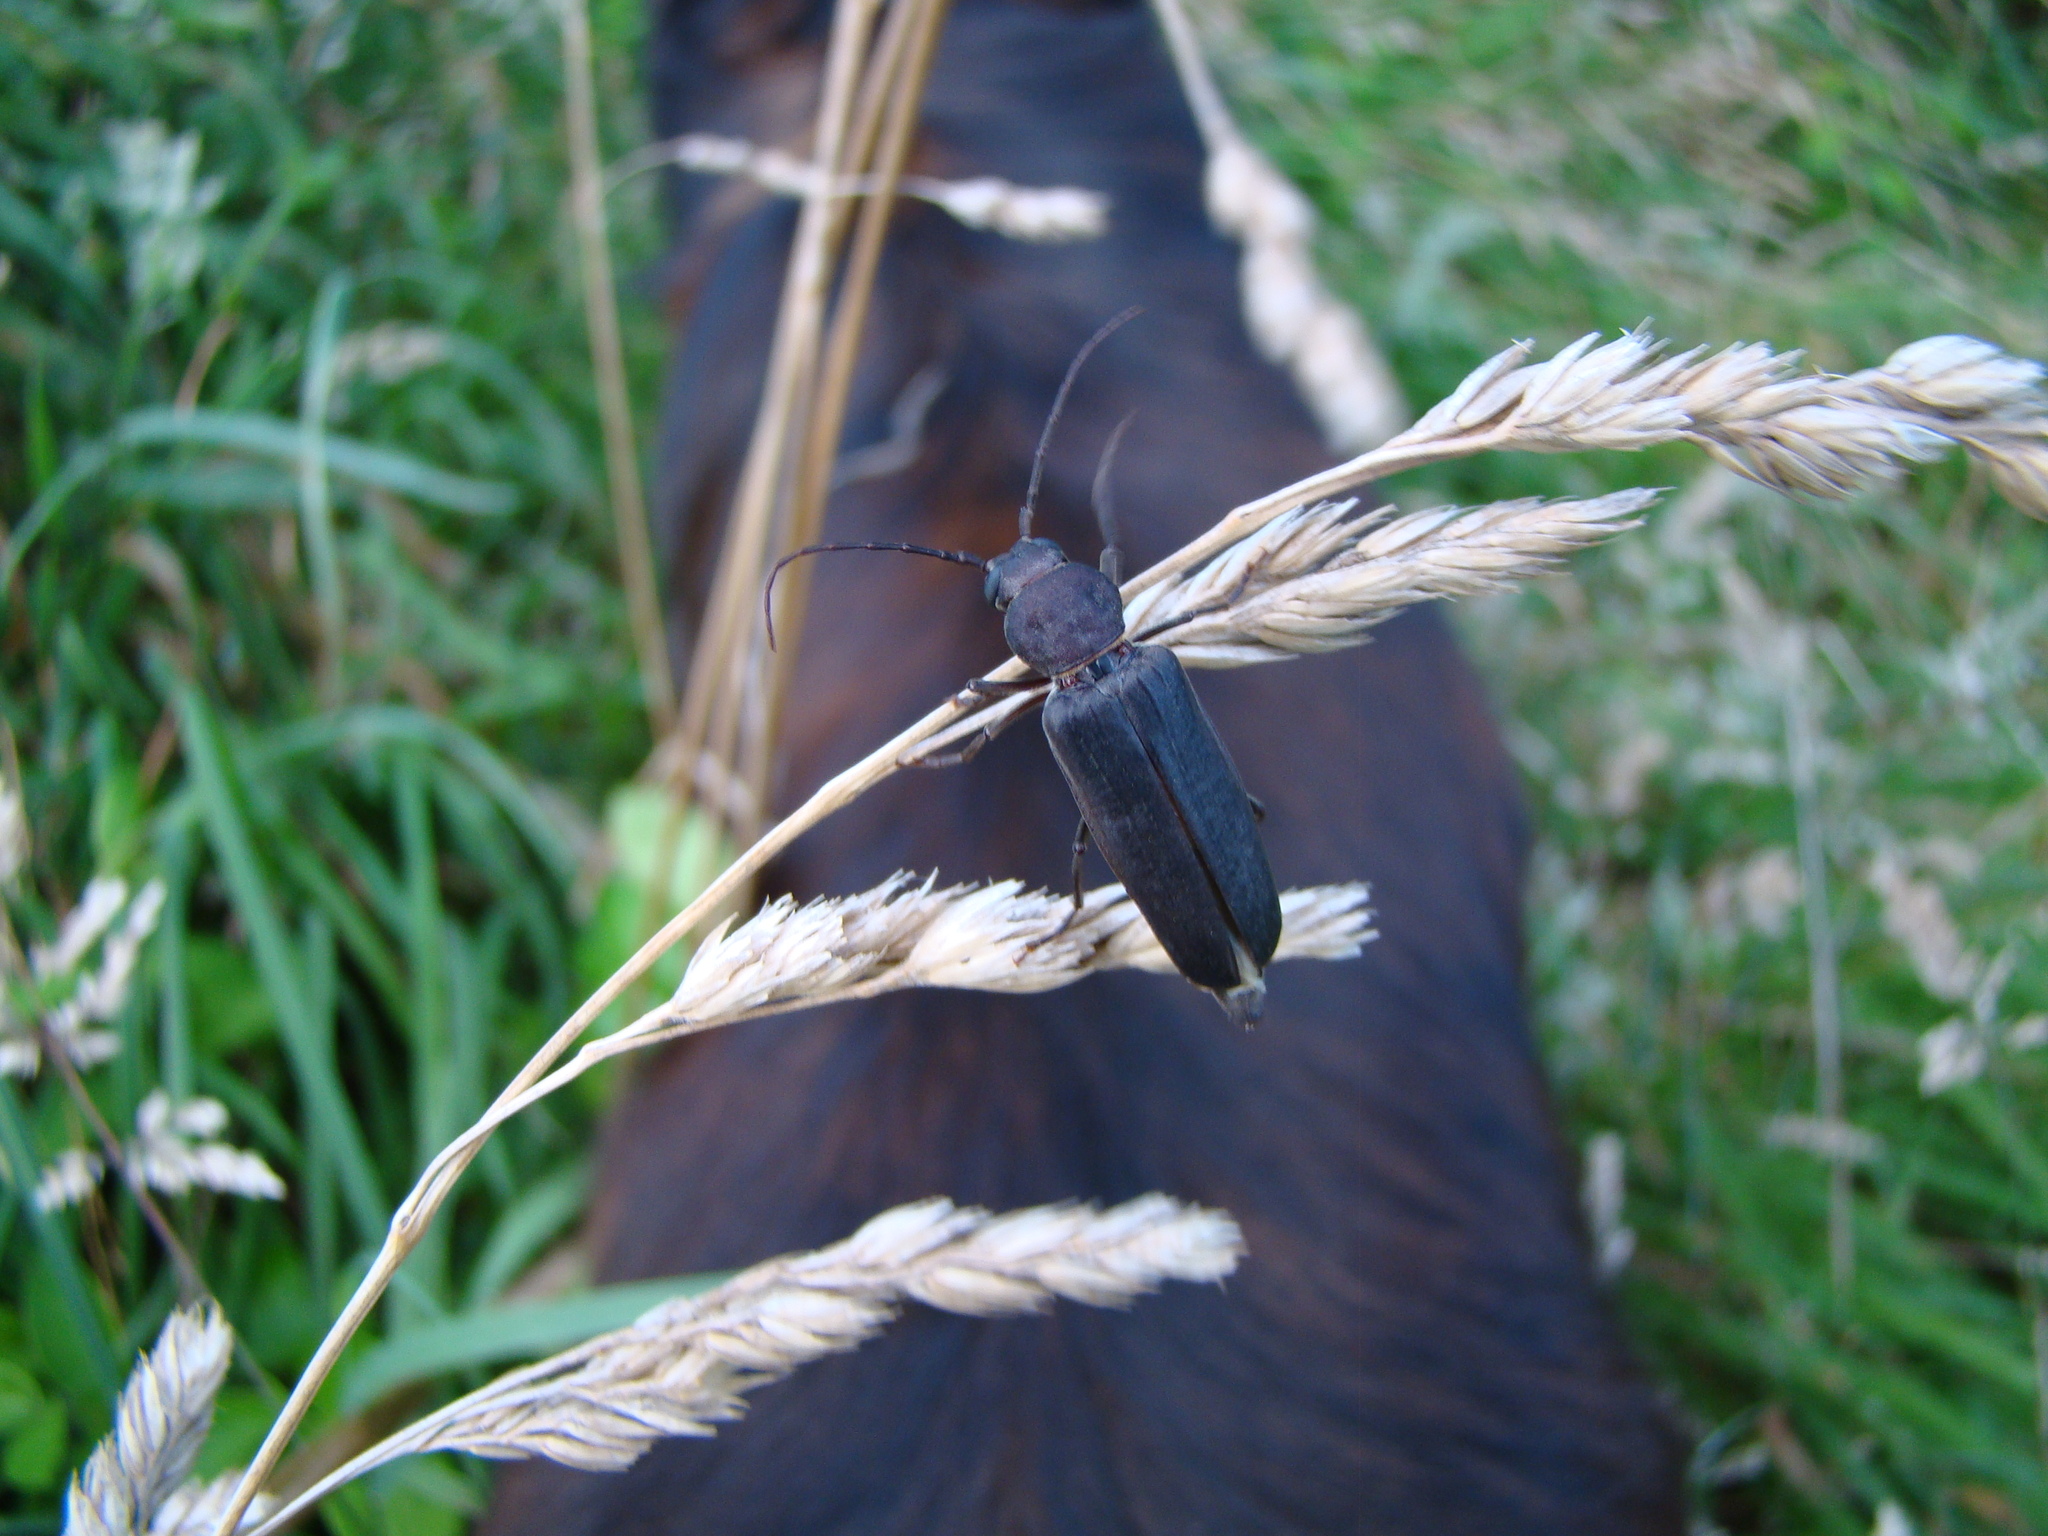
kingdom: Animalia
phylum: Arthropoda
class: Insecta
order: Coleoptera
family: Cerambycidae
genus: Arhopalus
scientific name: Arhopalus ferus
